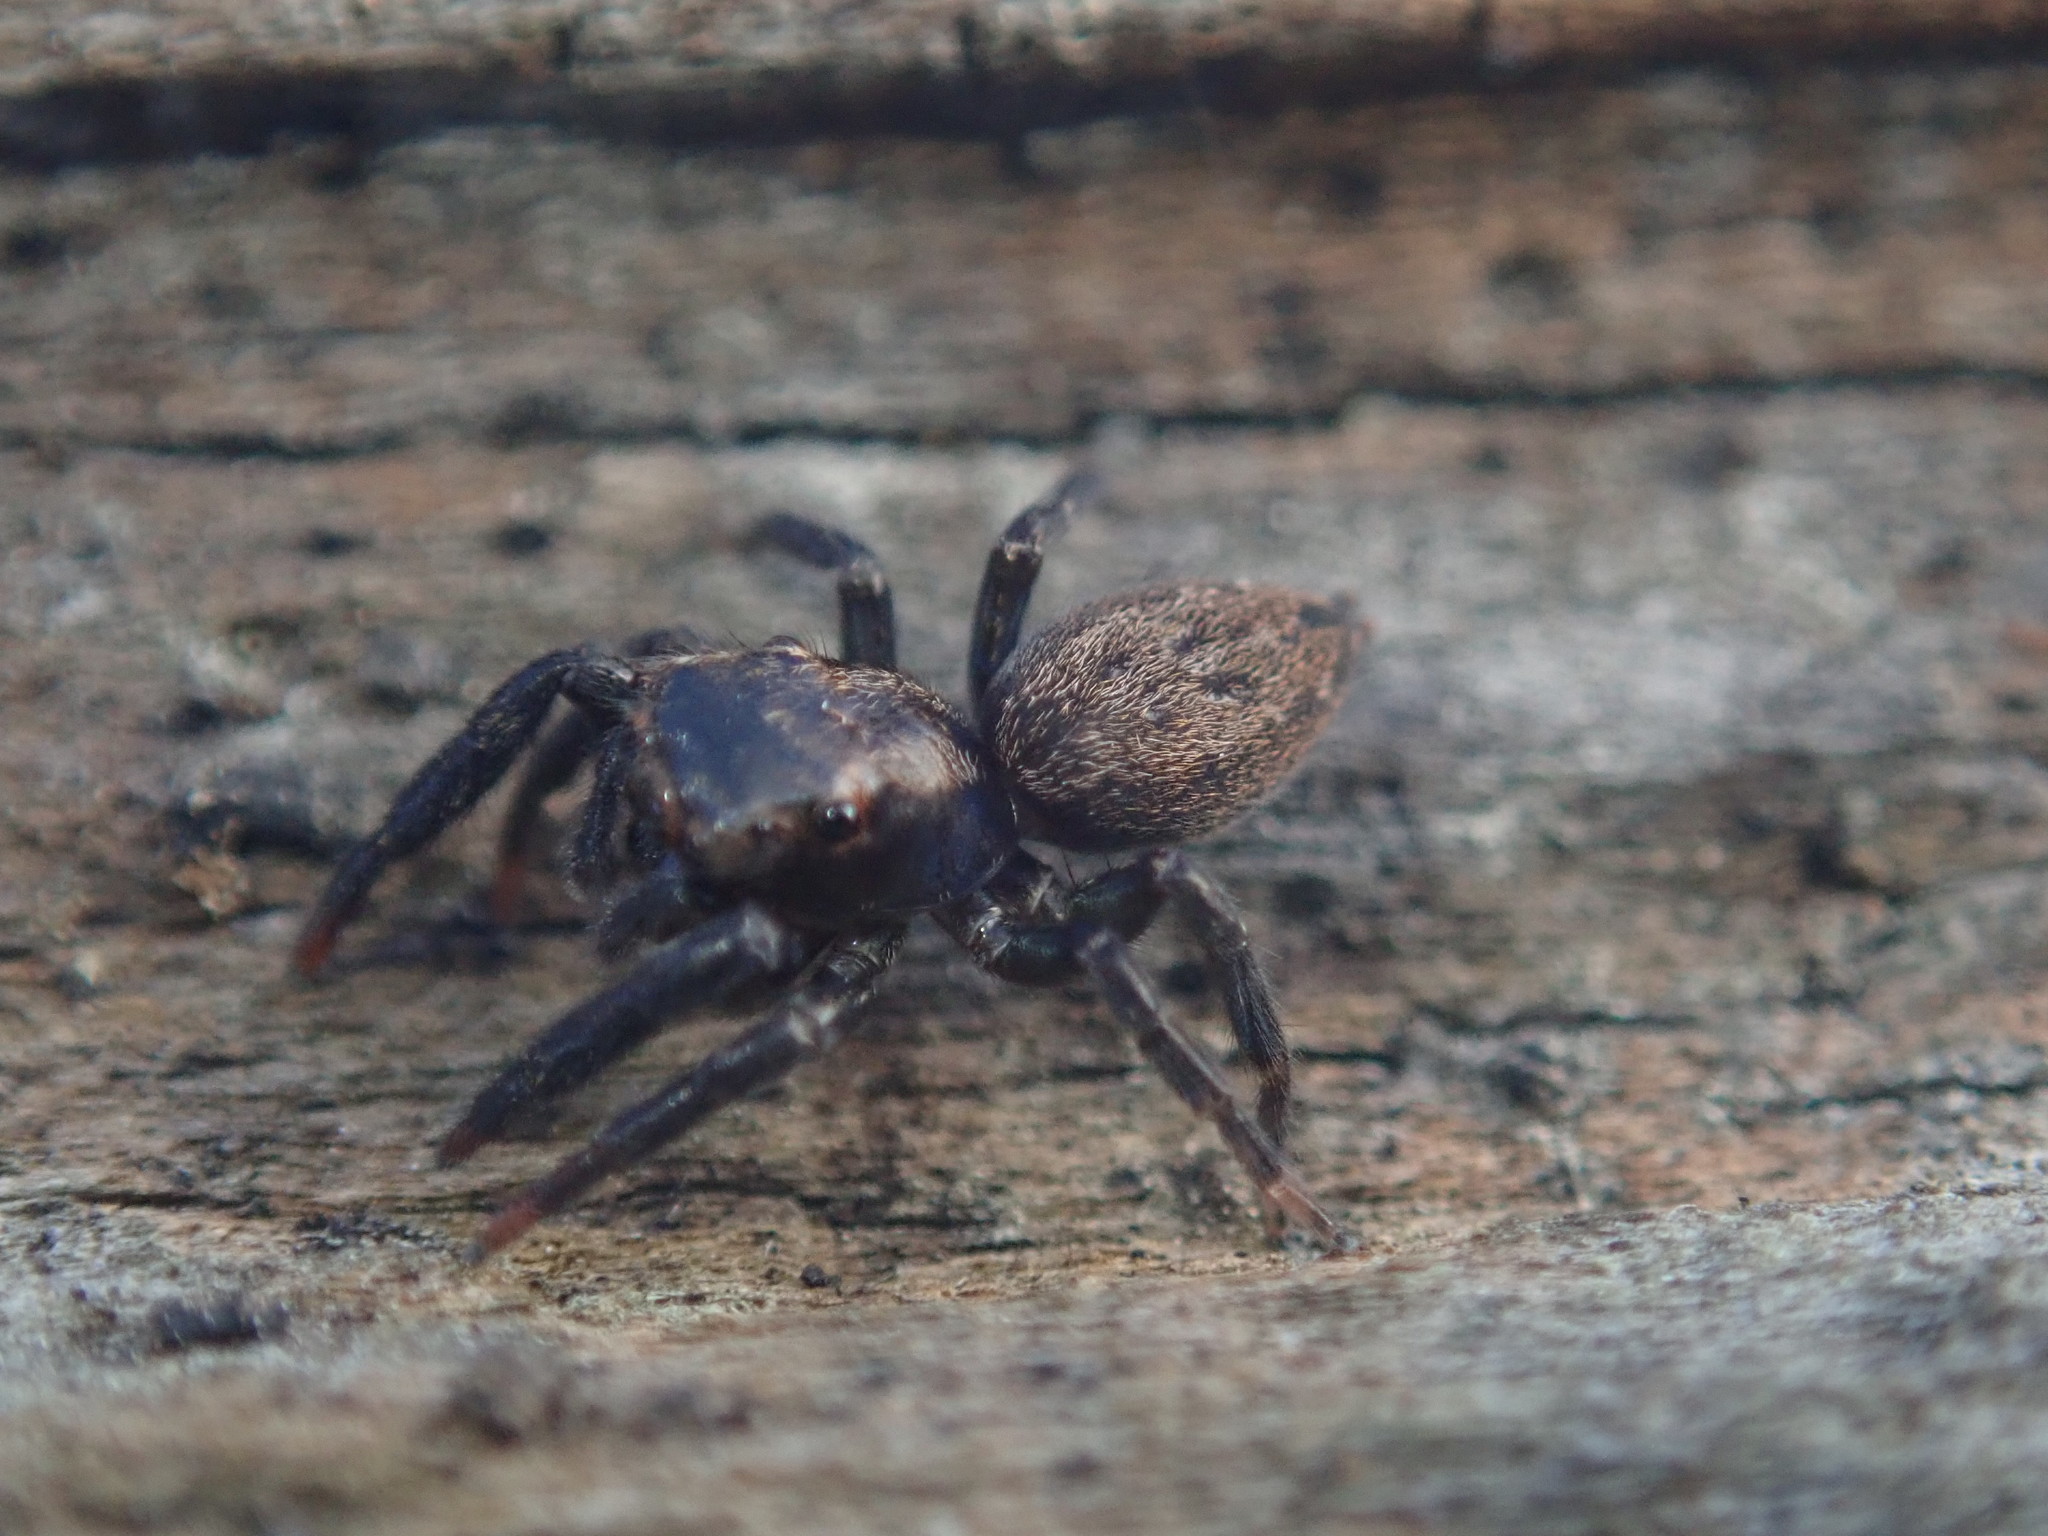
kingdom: Animalia
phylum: Arthropoda
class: Arachnida
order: Araneae
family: Salticidae
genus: Trite
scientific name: Trite auricoma
